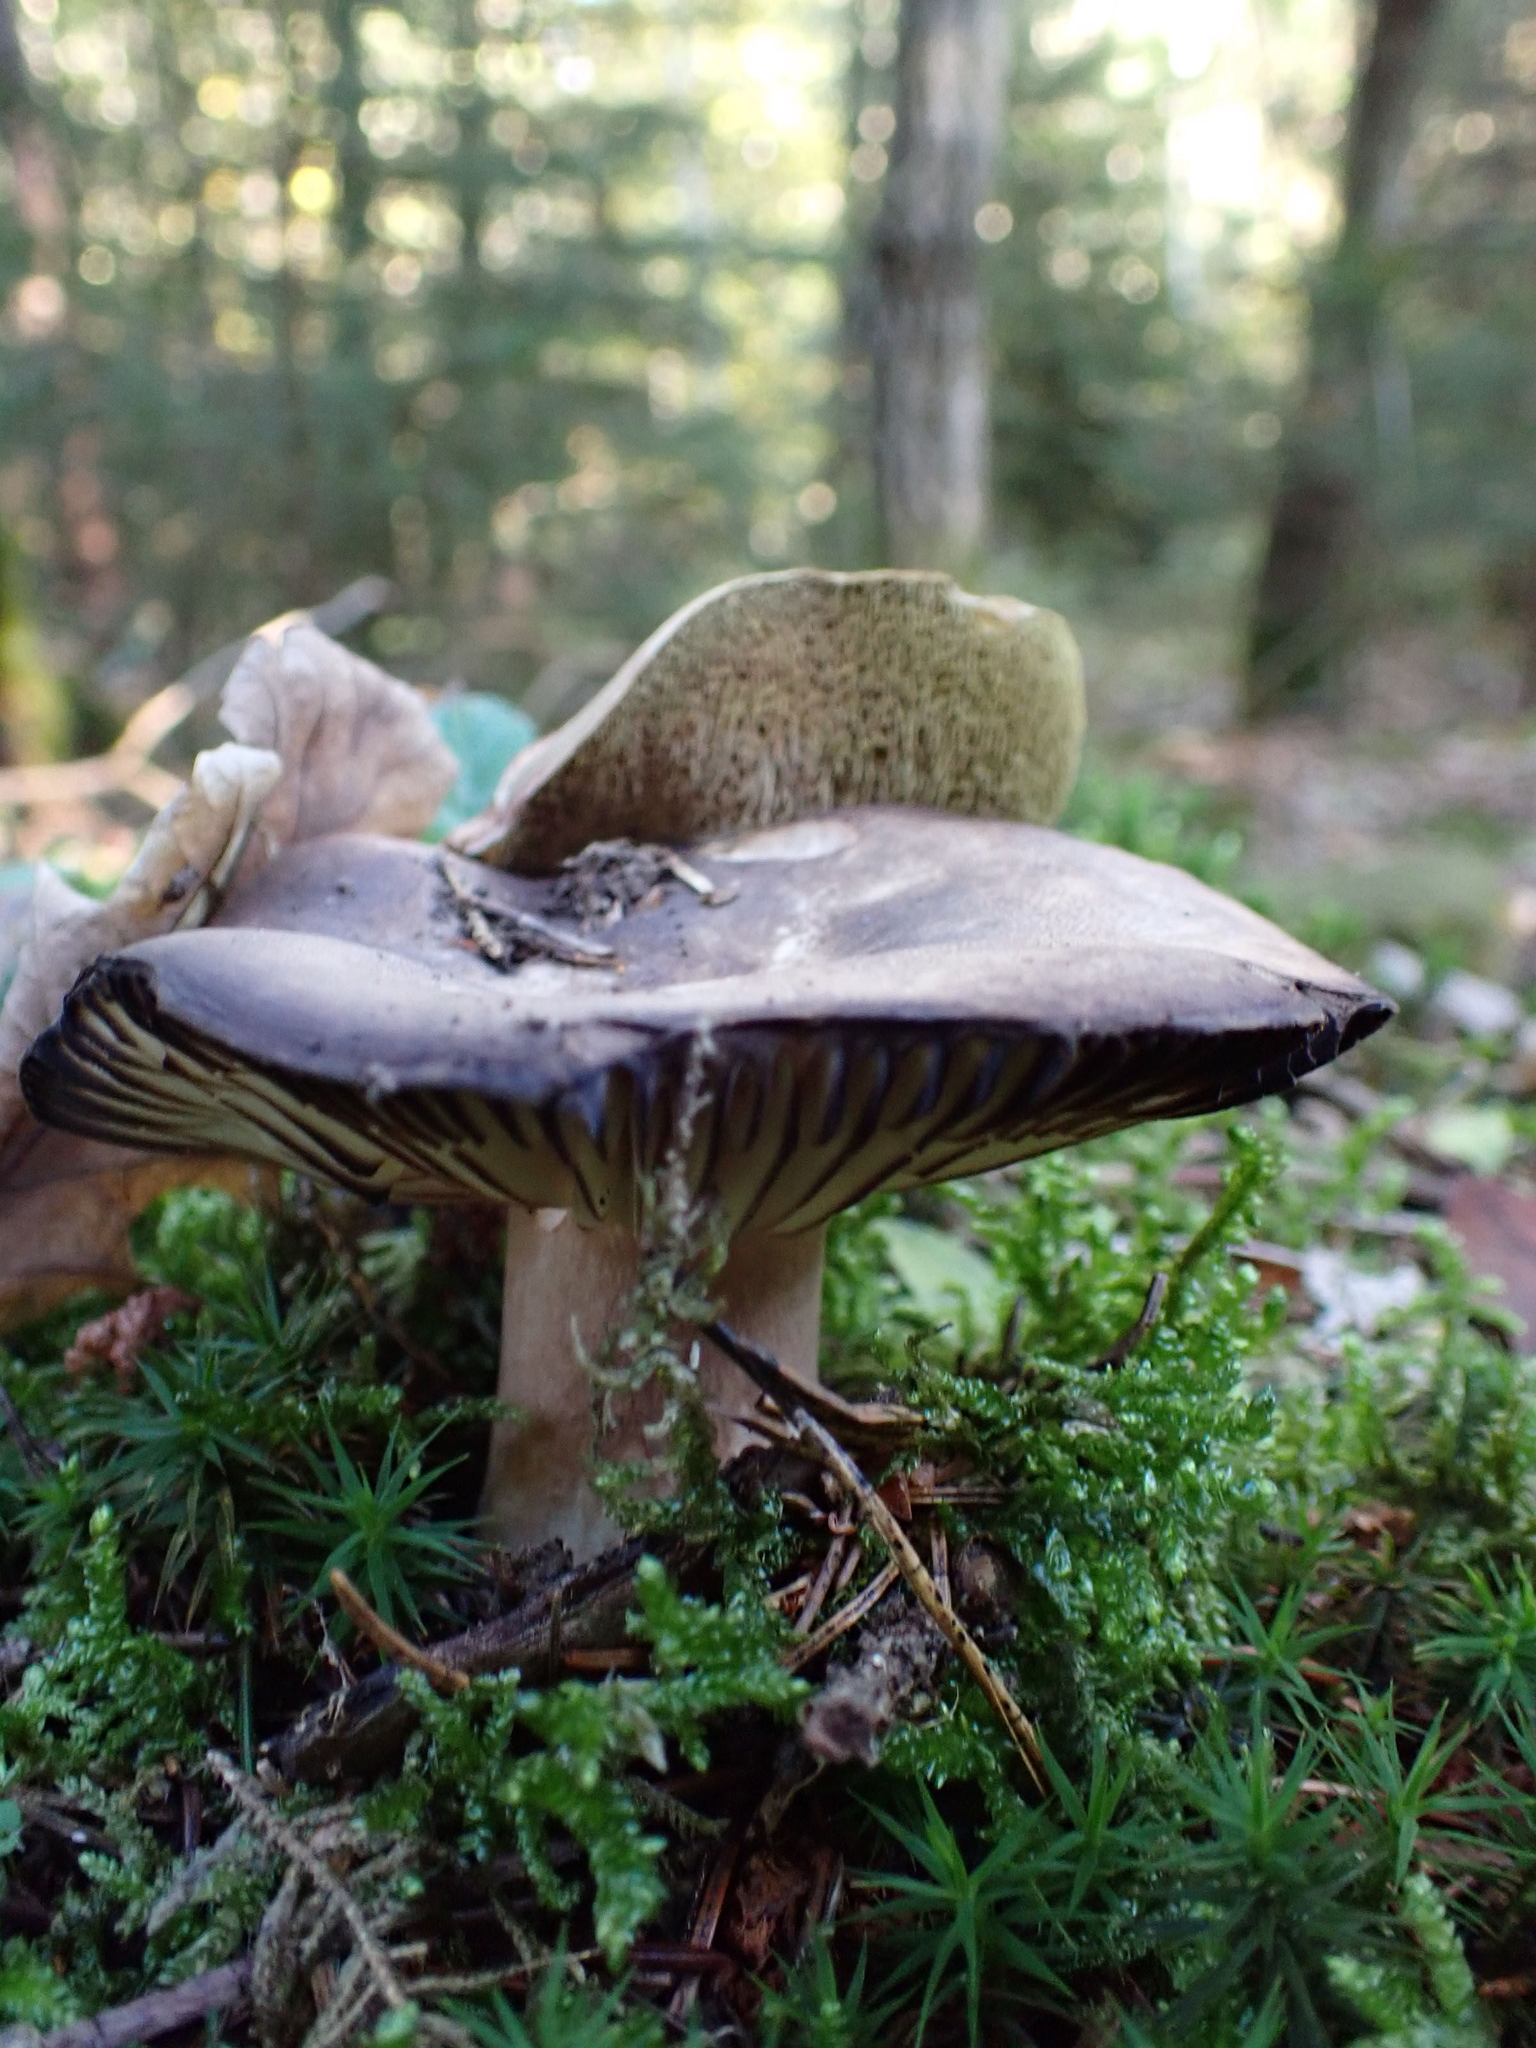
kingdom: Fungi
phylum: Basidiomycota
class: Agaricomycetes
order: Russulales
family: Russulaceae
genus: Russula
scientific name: Russula adusta
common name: Winecork brittlegill
